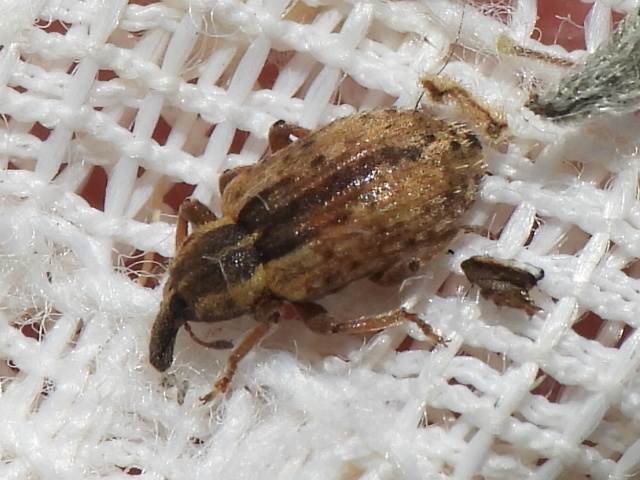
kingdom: Animalia
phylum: Arthropoda
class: Insecta
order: Coleoptera
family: Curculionidae
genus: Hypera
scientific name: Hypera postica
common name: Weevil
